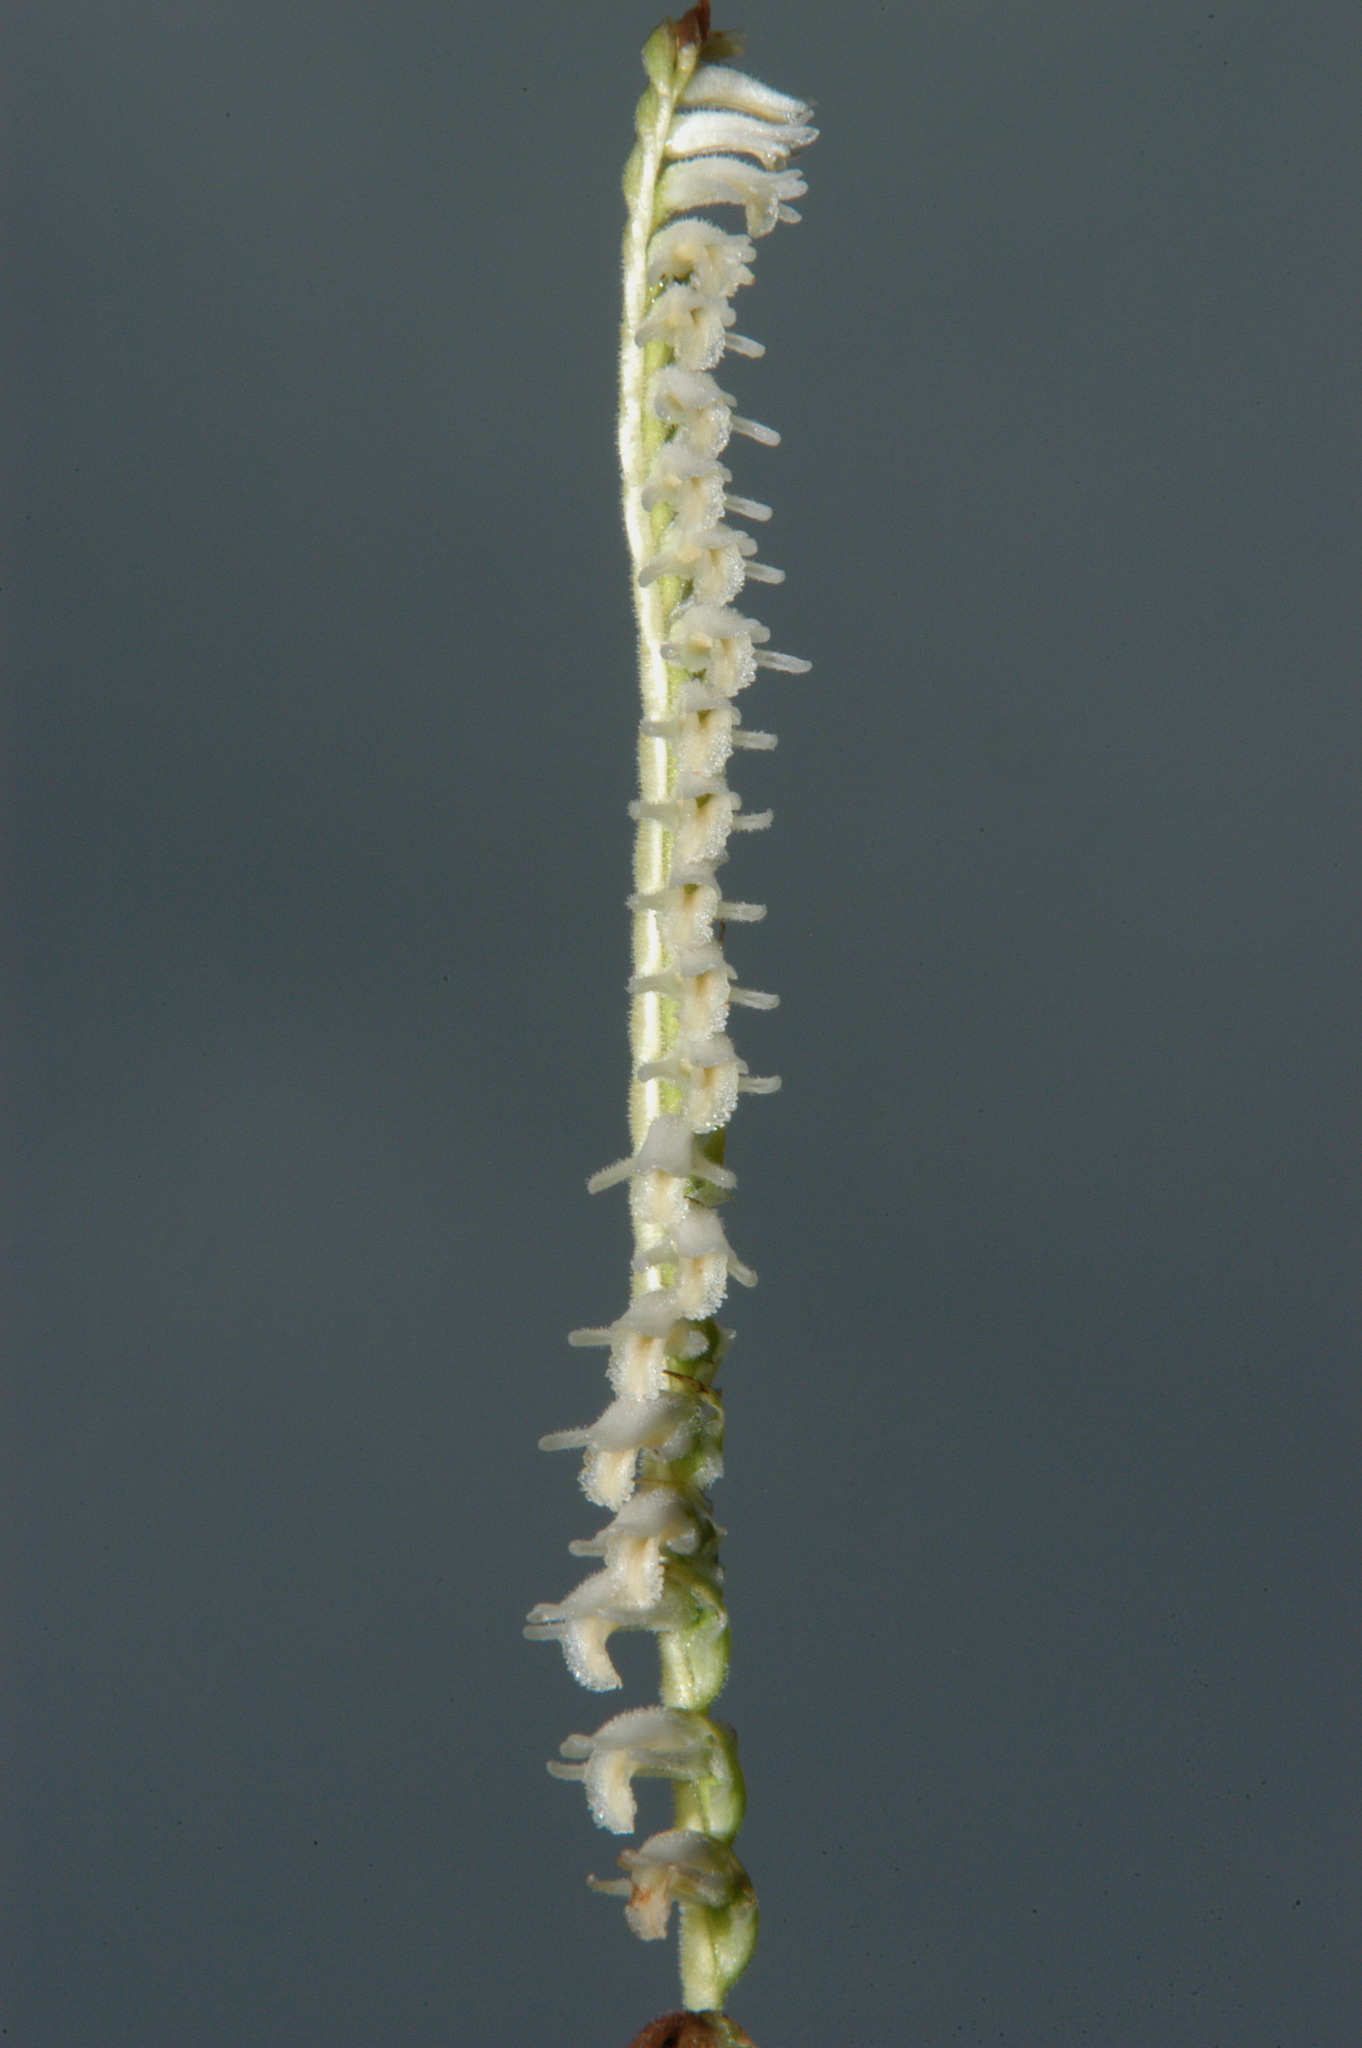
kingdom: Plantae
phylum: Tracheophyta
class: Liliopsida
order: Asparagales
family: Orchidaceae
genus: Spiranthes
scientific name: Spiranthes vernalis
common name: Spring ladies'-tresses
